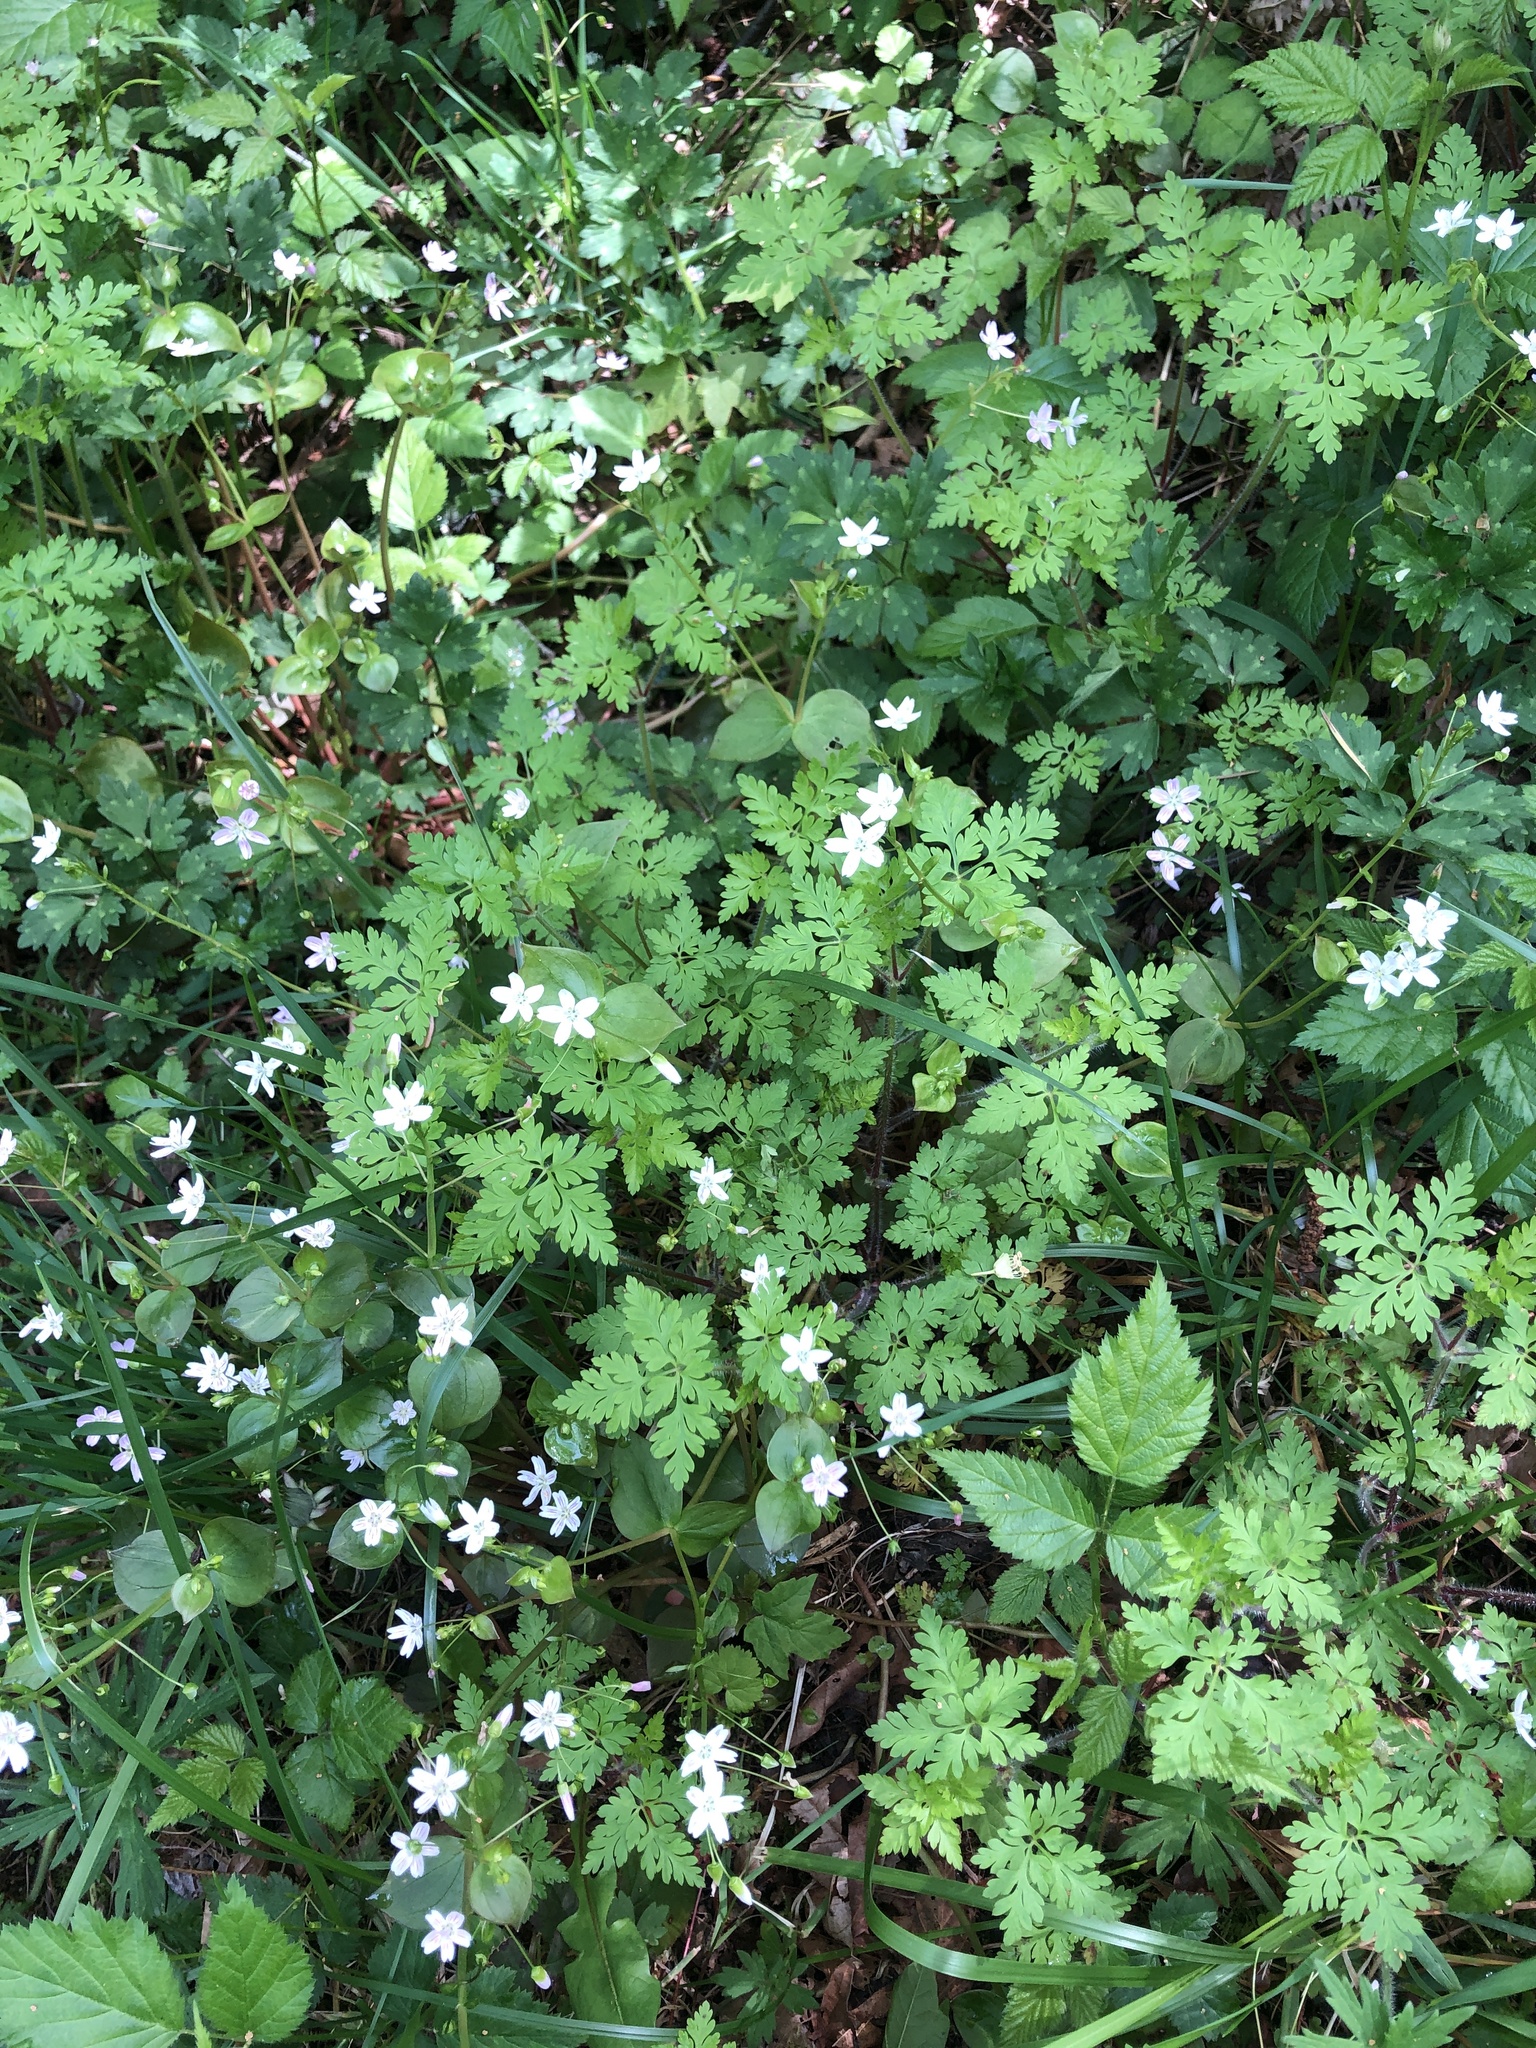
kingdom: Plantae
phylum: Tracheophyta
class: Magnoliopsida
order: Geraniales
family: Geraniaceae
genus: Geranium
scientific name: Geranium robertianum
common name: Herb-robert
